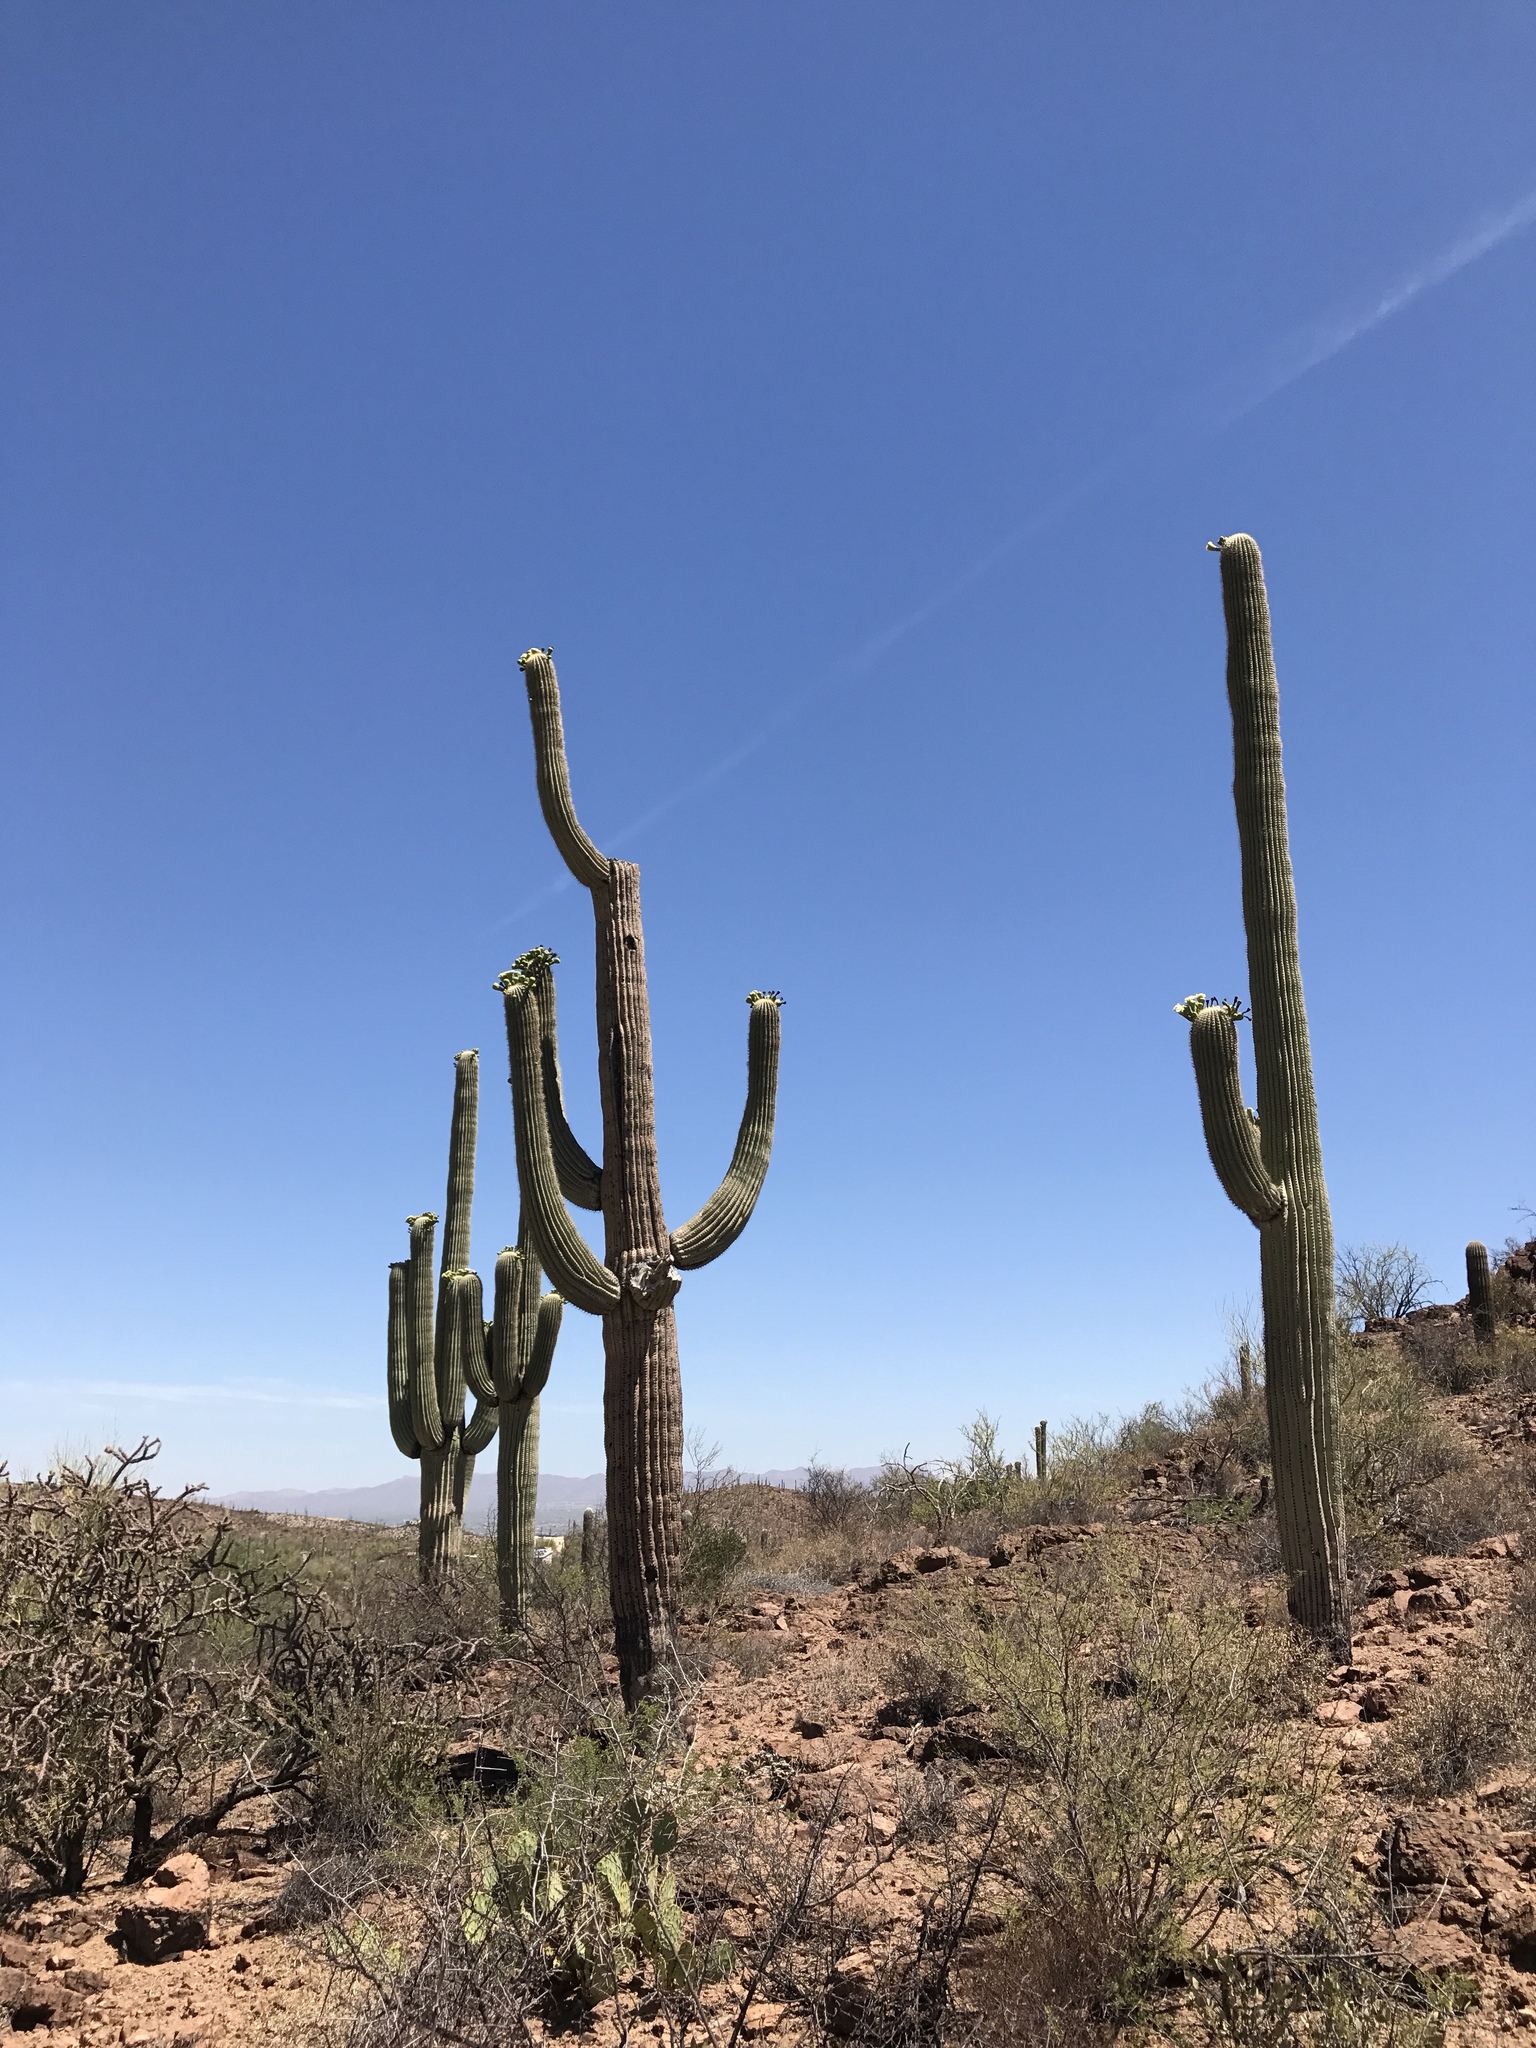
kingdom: Plantae
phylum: Tracheophyta
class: Magnoliopsida
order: Caryophyllales
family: Cactaceae
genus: Carnegiea
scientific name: Carnegiea gigantea
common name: Saguaro
